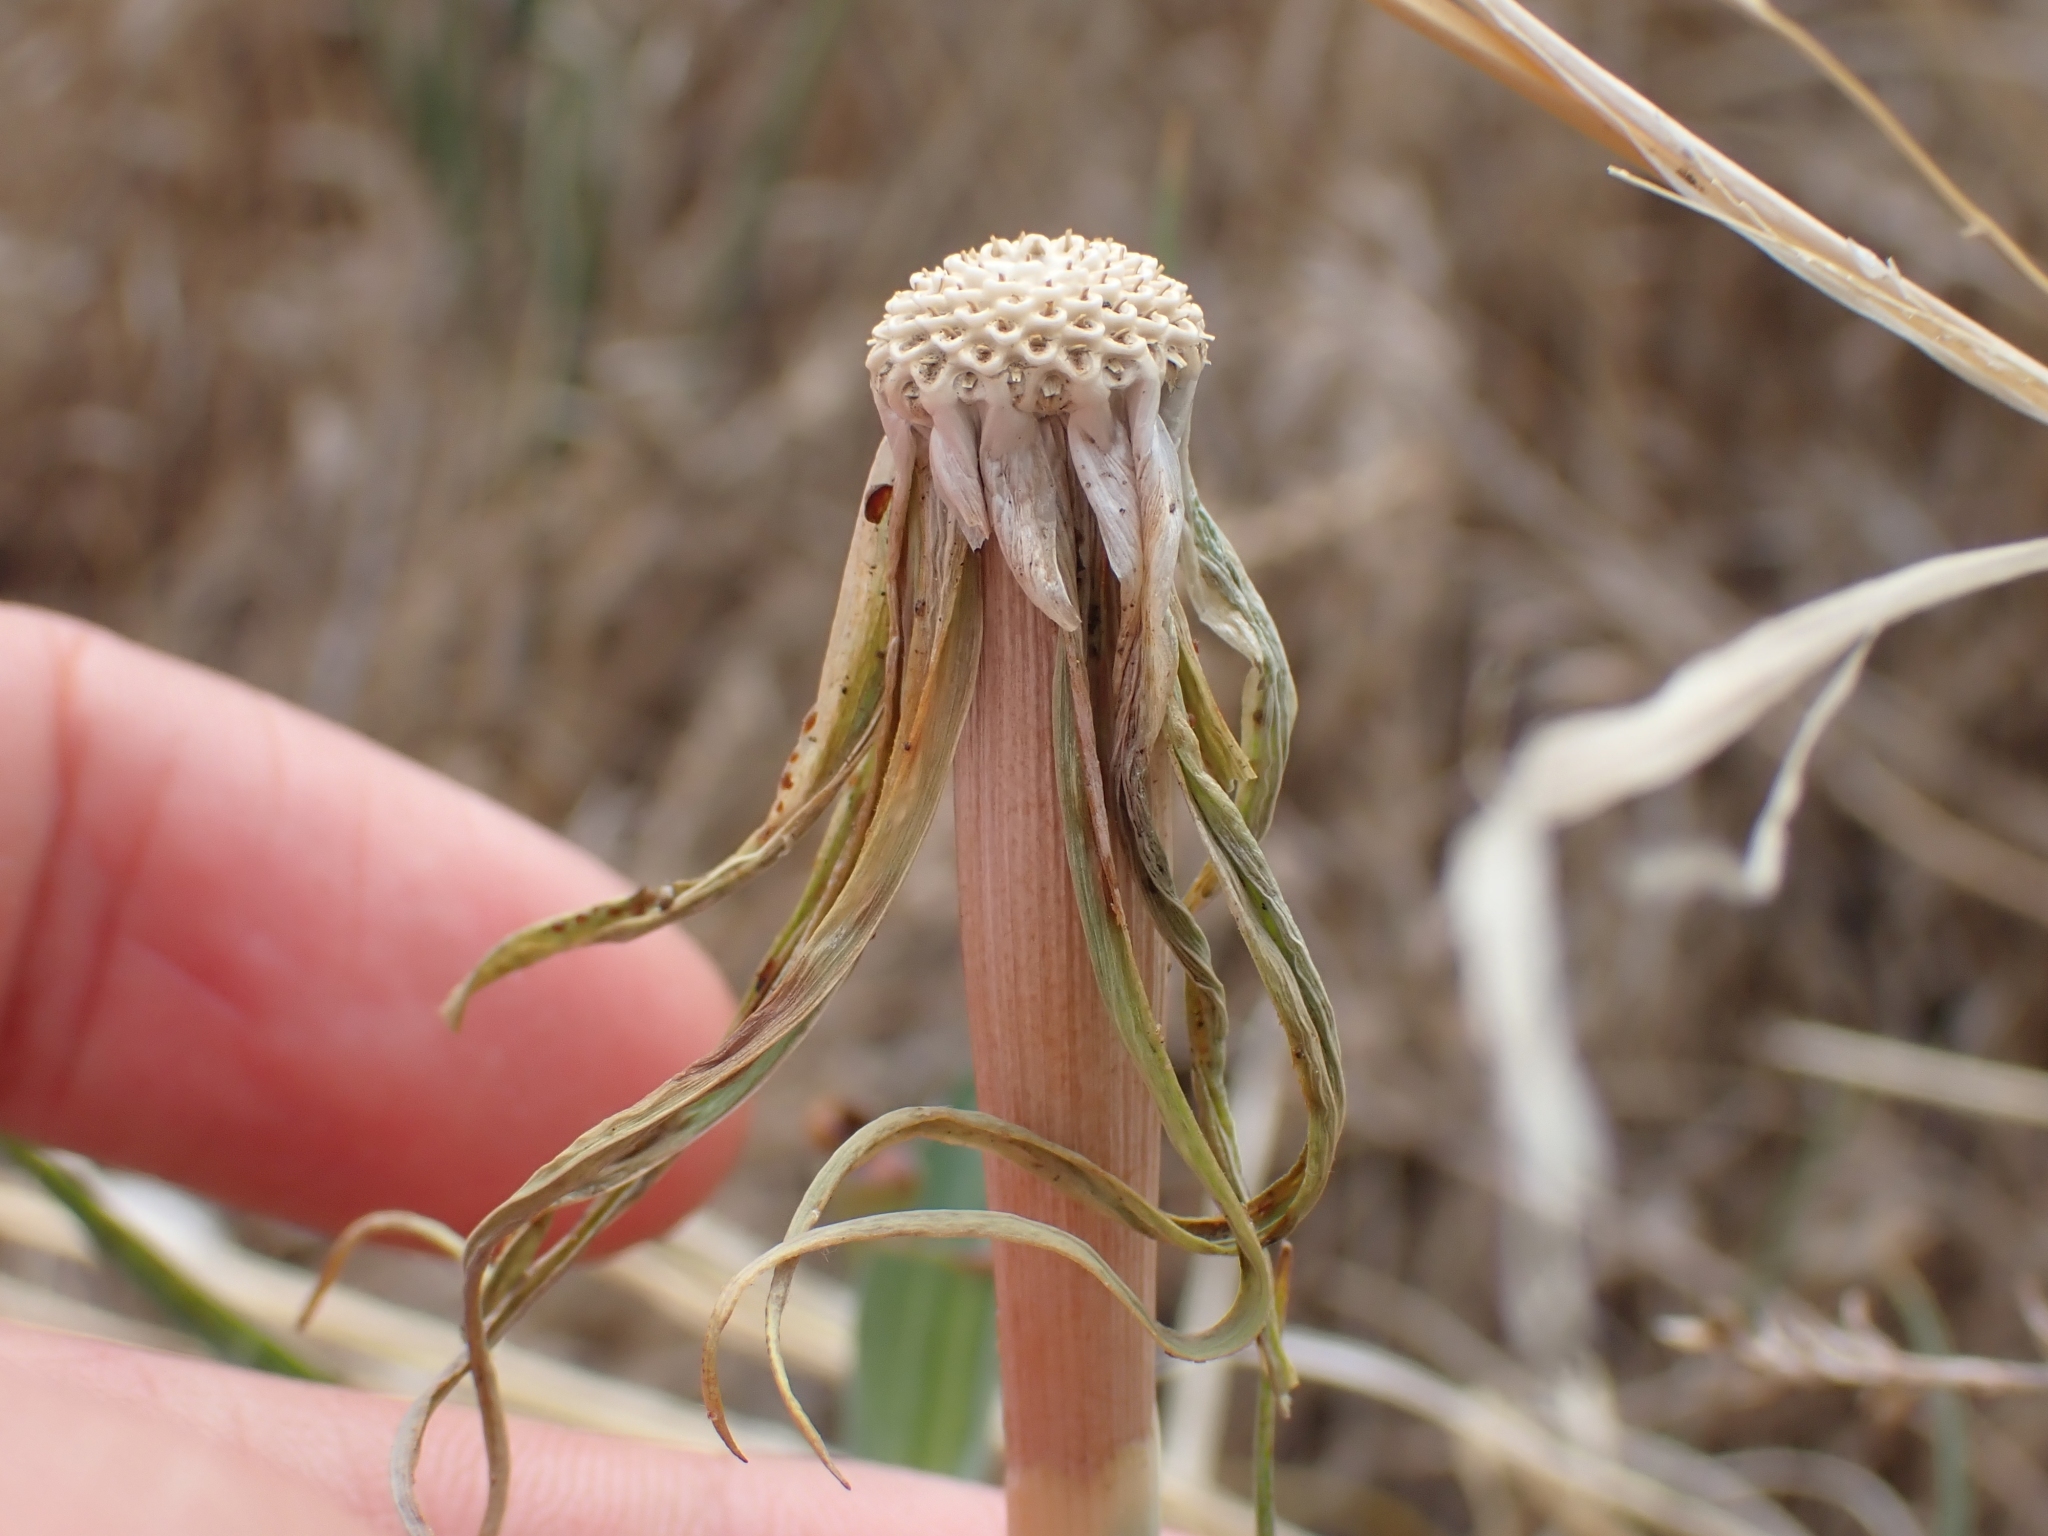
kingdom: Plantae
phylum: Tracheophyta
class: Magnoliopsida
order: Asterales
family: Asteraceae
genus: Tragopogon
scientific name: Tragopogon dubius
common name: Yellow salsify
